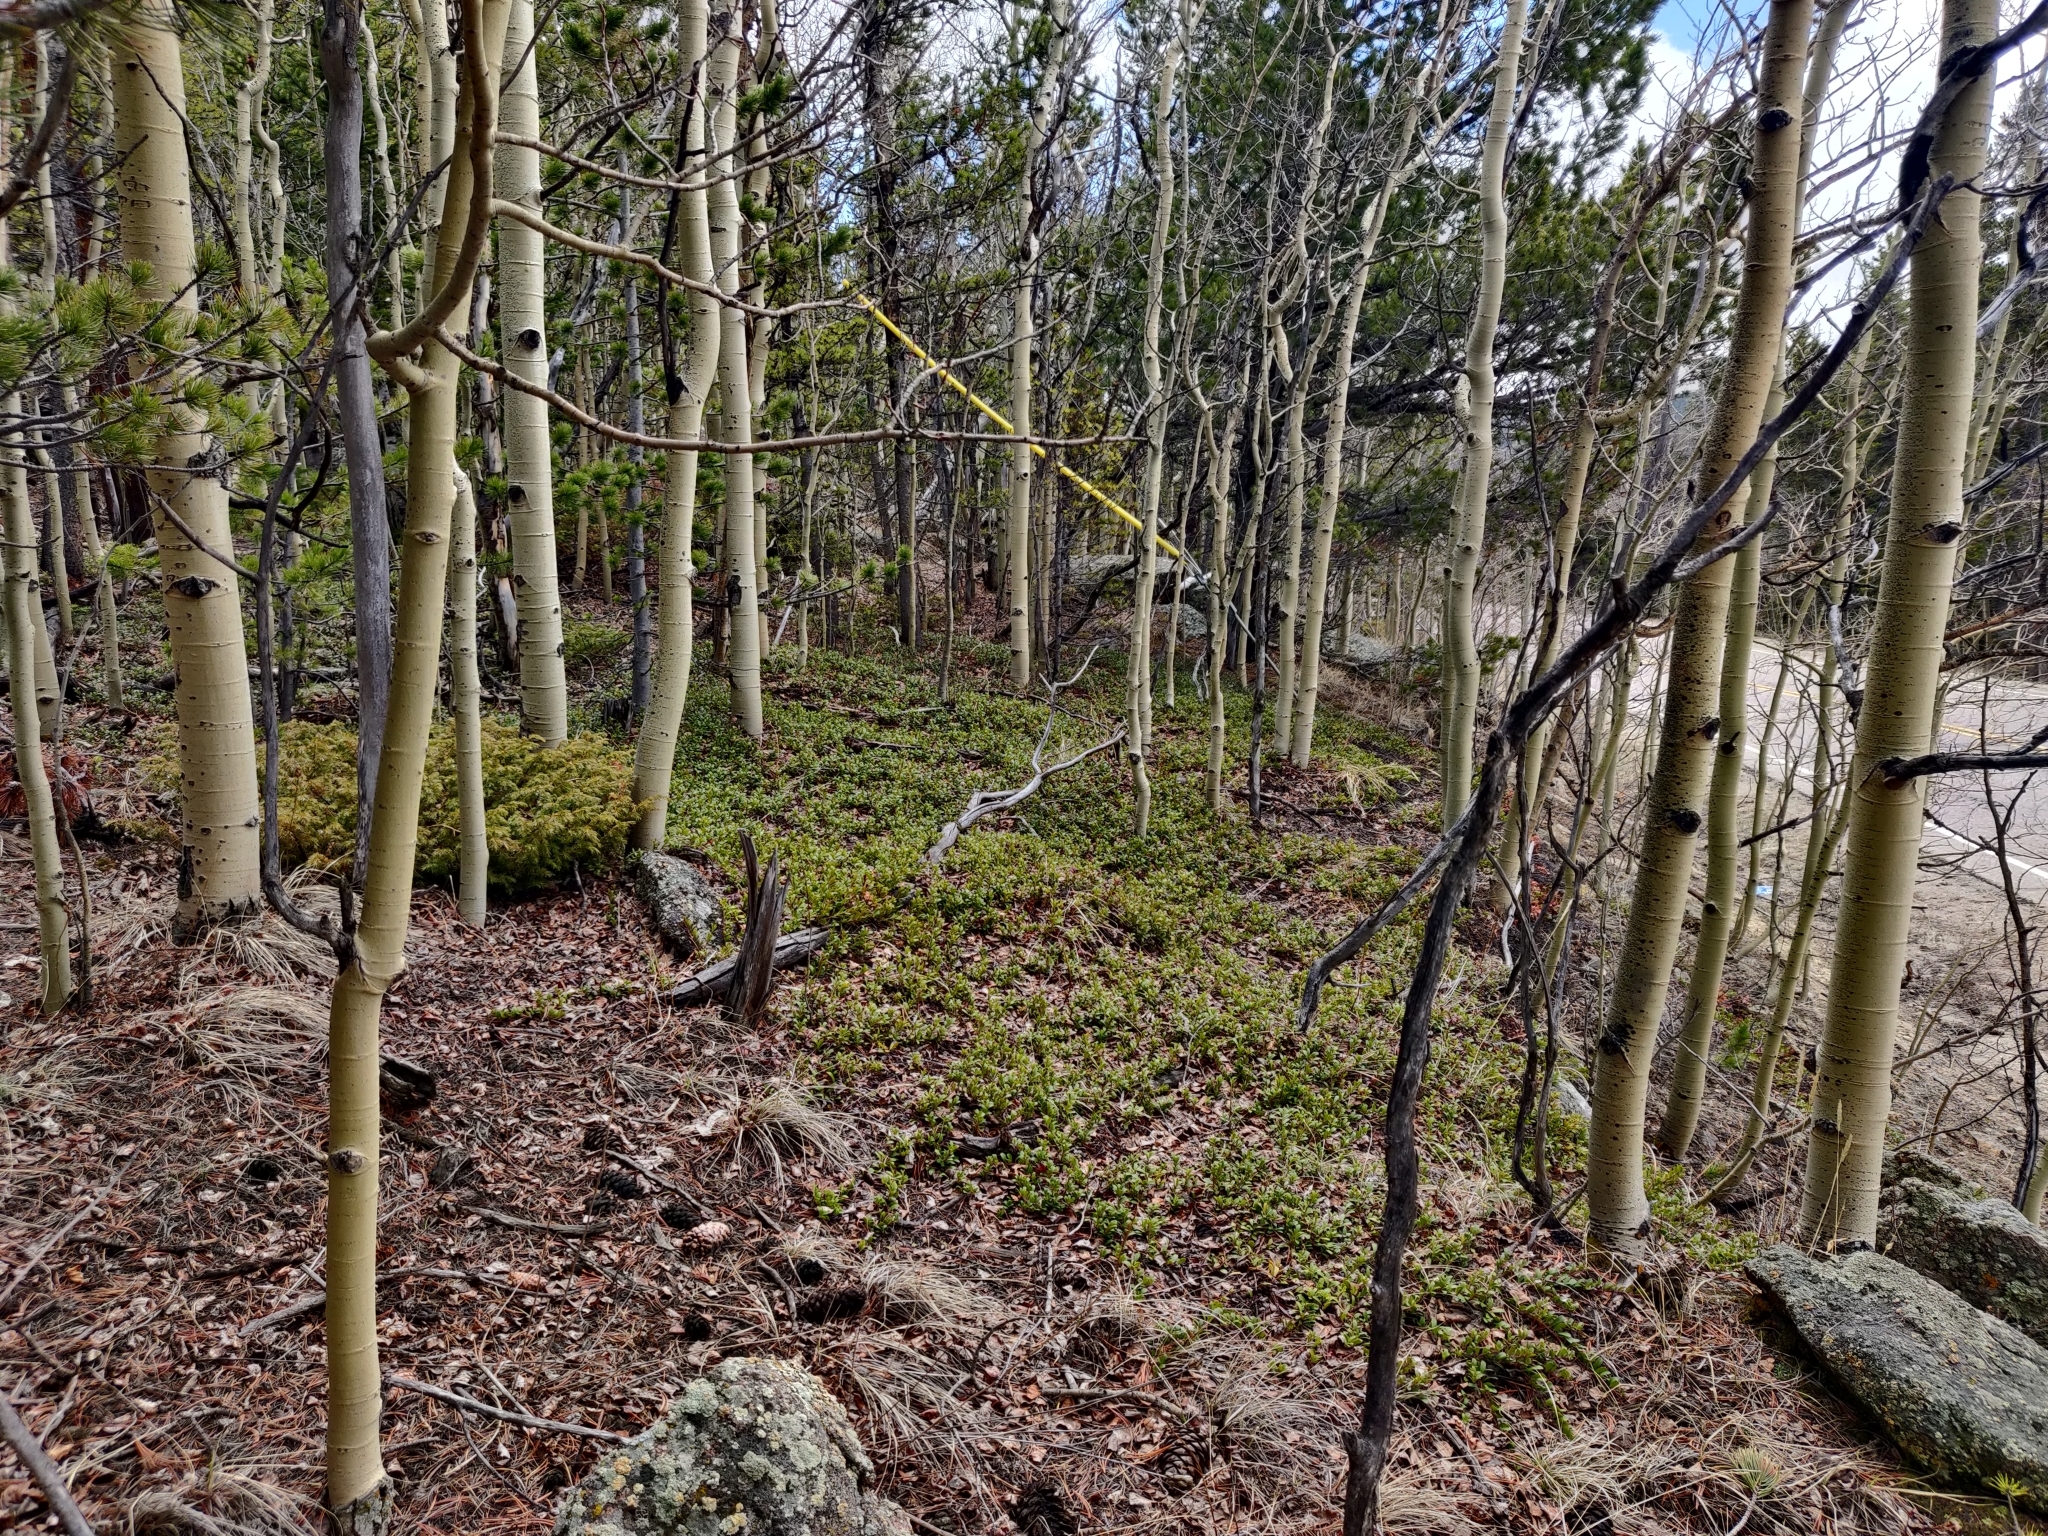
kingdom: Plantae
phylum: Tracheophyta
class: Magnoliopsida
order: Ericales
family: Ericaceae
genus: Arctostaphylos
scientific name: Arctostaphylos uva-ursi
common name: Bearberry
